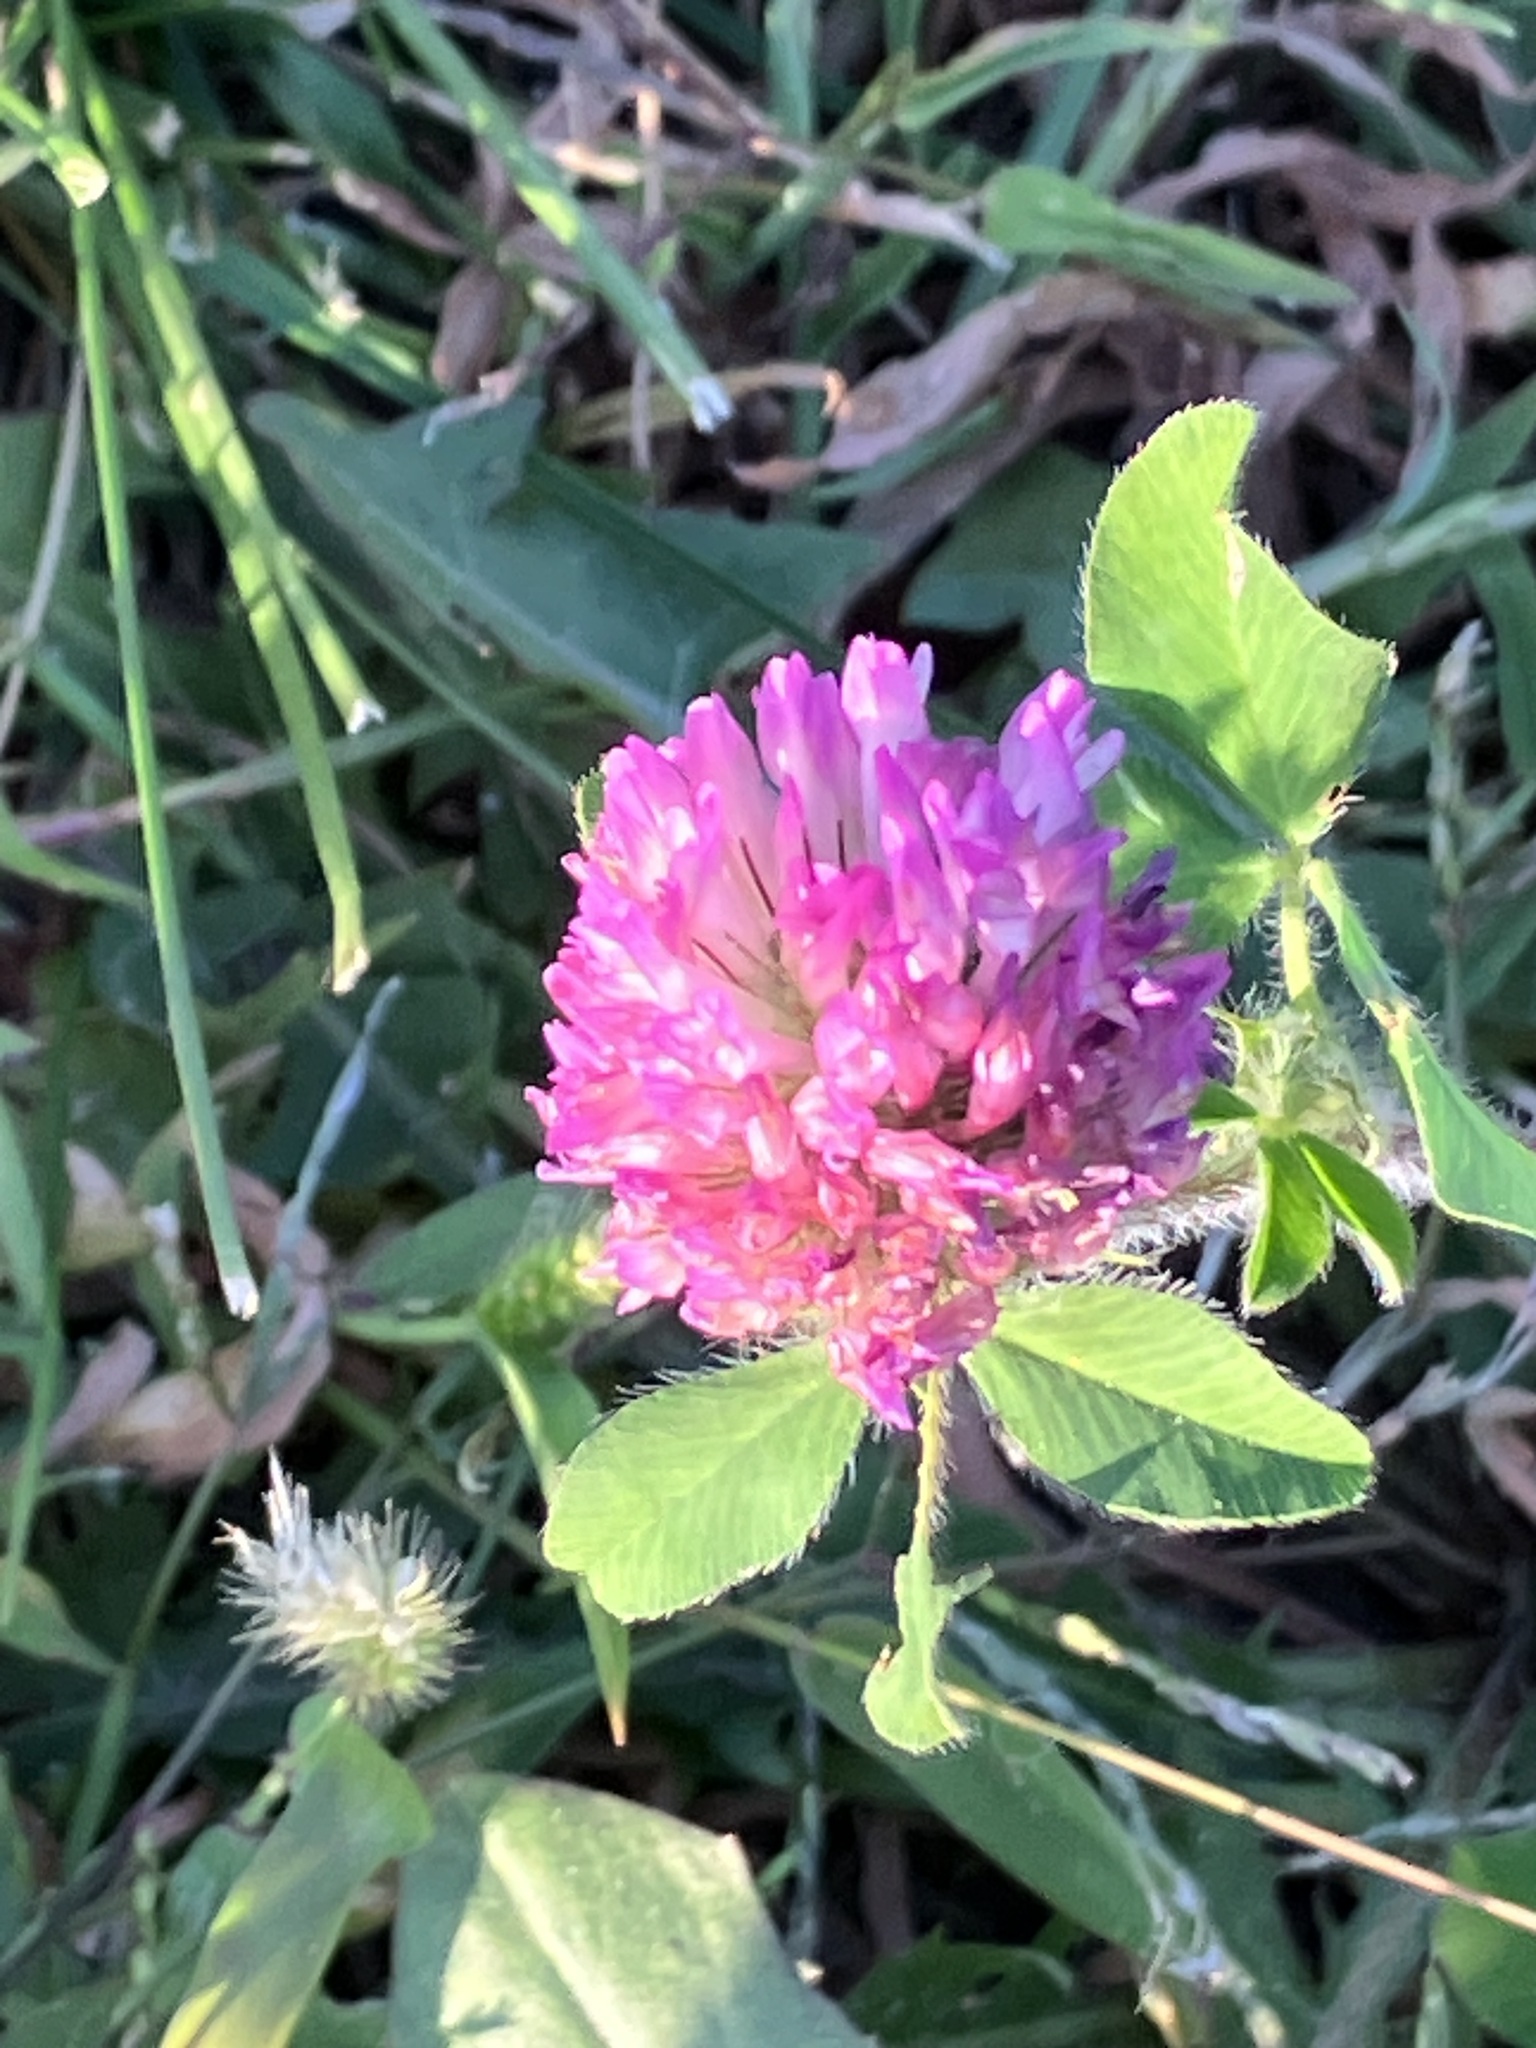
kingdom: Plantae
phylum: Tracheophyta
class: Magnoliopsida
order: Fabales
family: Fabaceae
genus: Trifolium
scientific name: Trifolium pratense
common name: Red clover
